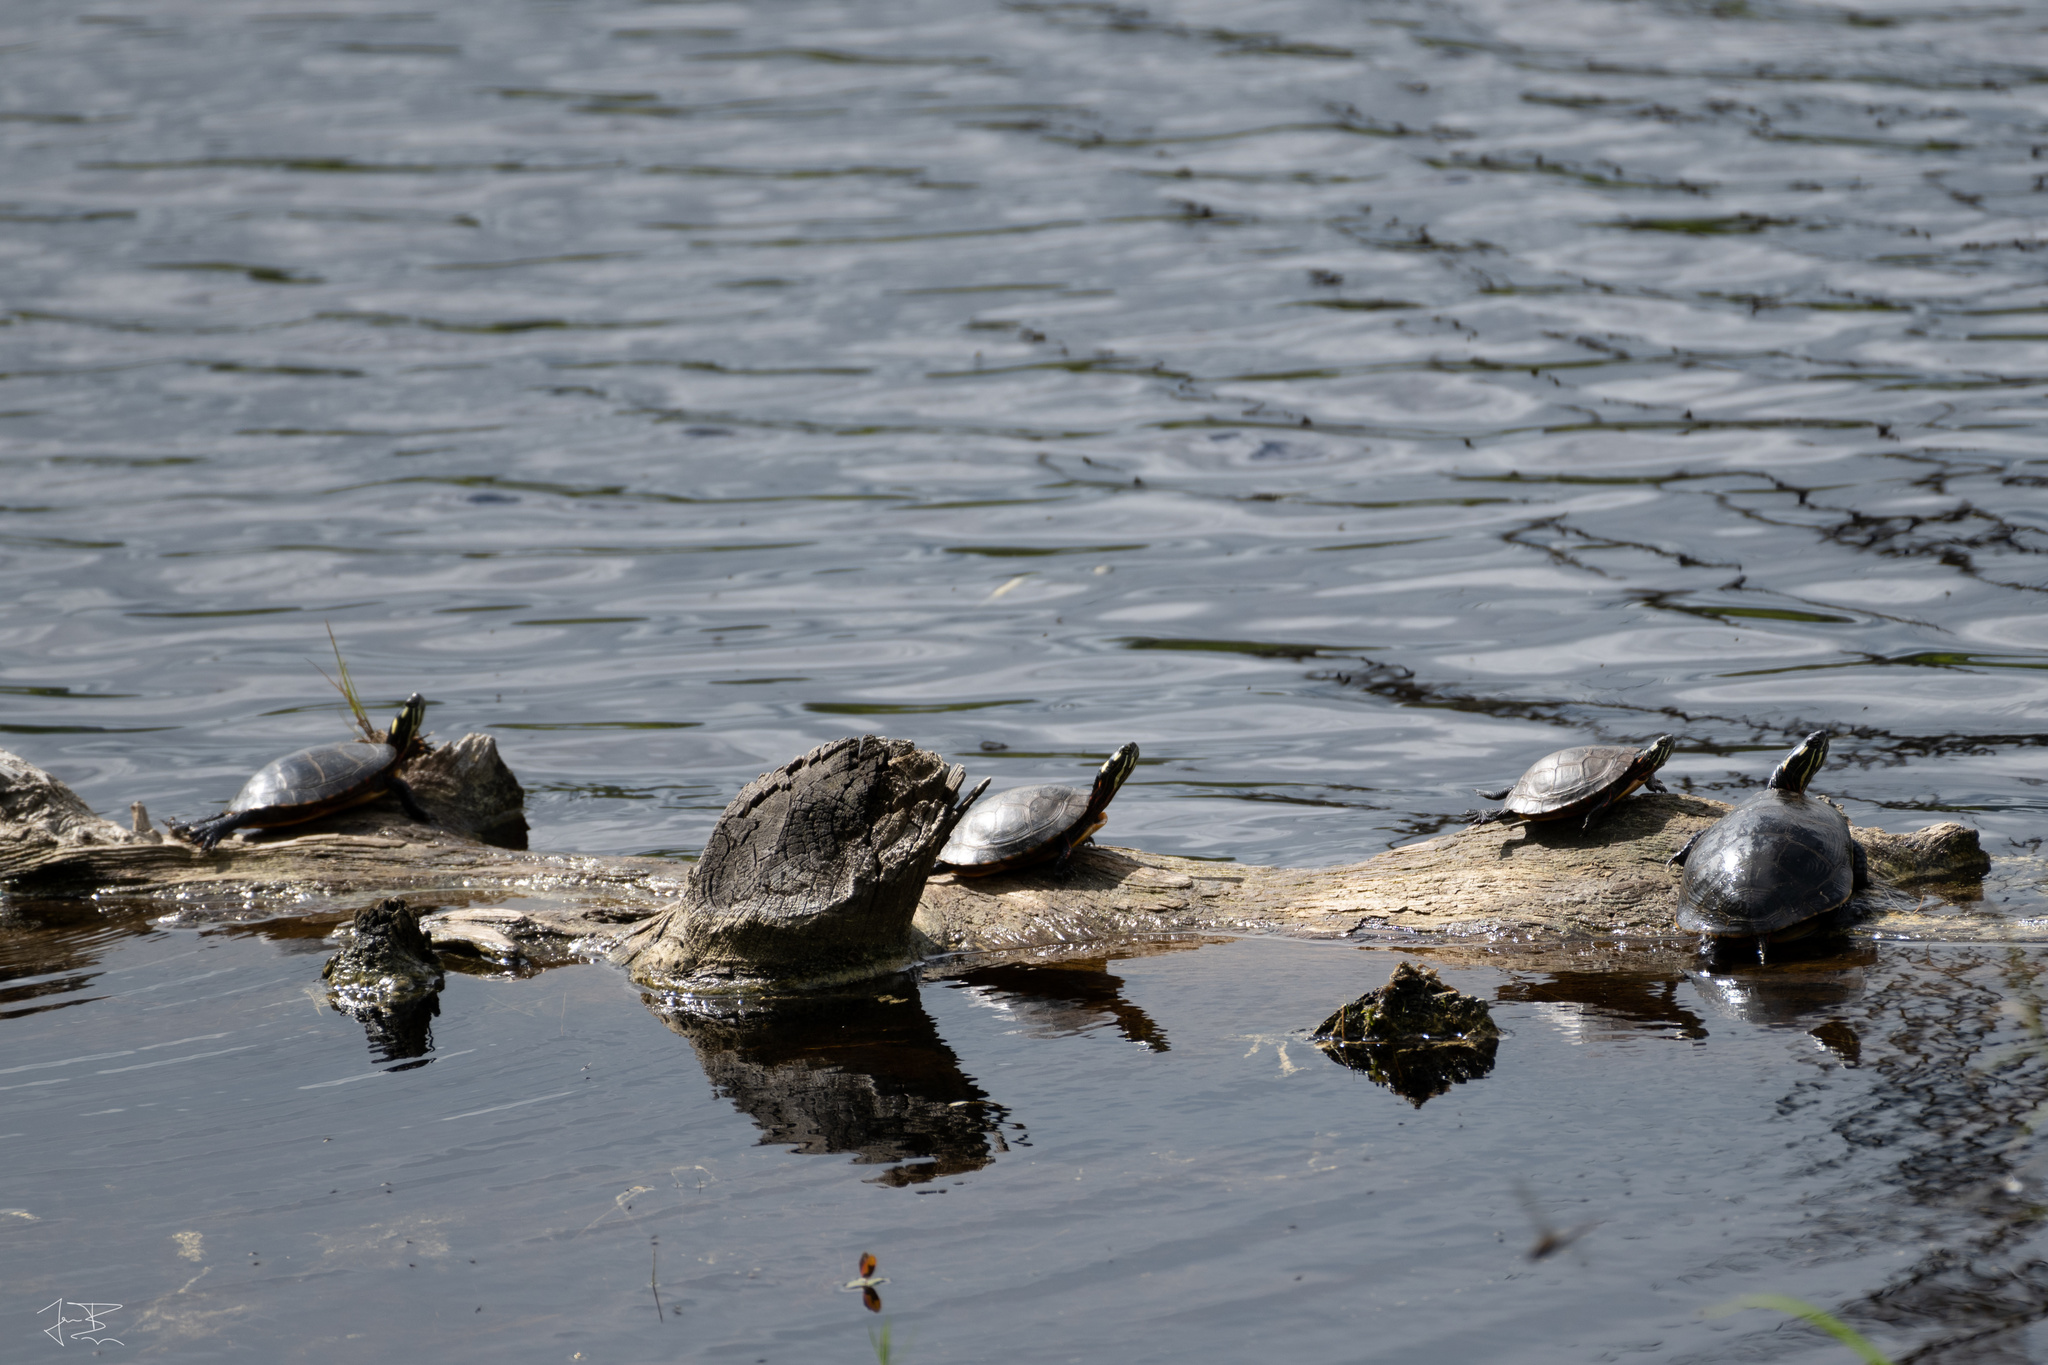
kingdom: Animalia
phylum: Chordata
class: Testudines
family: Emydidae
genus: Chrysemys
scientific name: Chrysemys picta
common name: Painted turtle
